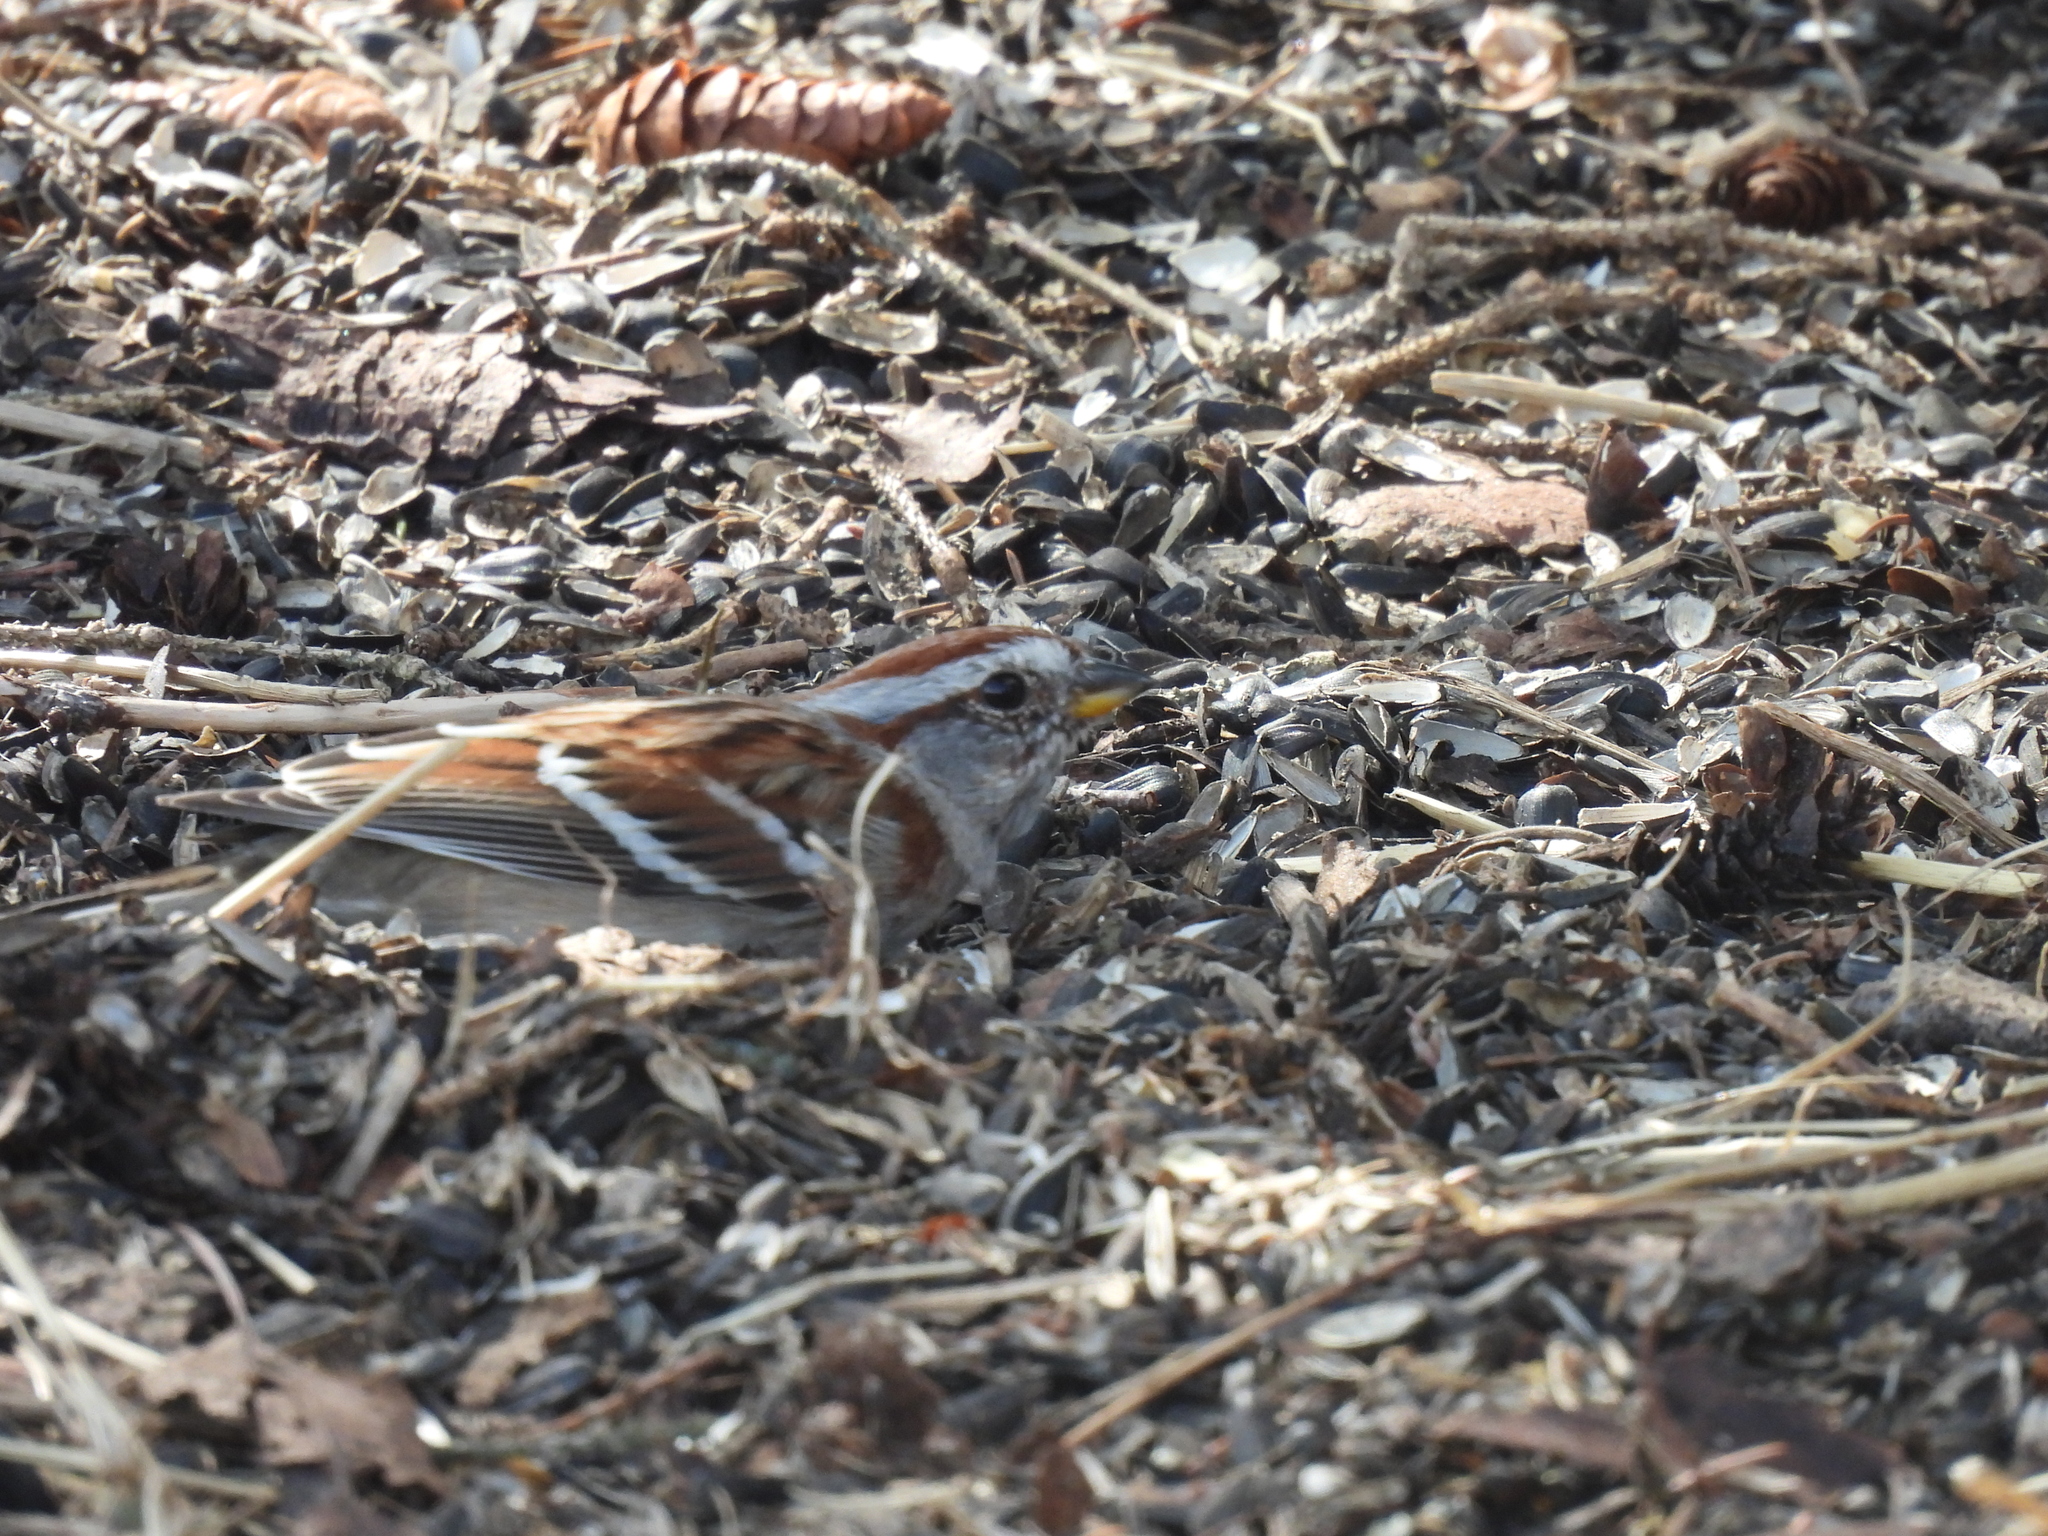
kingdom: Animalia
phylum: Chordata
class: Aves
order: Passeriformes
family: Passerellidae
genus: Spizelloides
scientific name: Spizelloides arborea
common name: American tree sparrow
